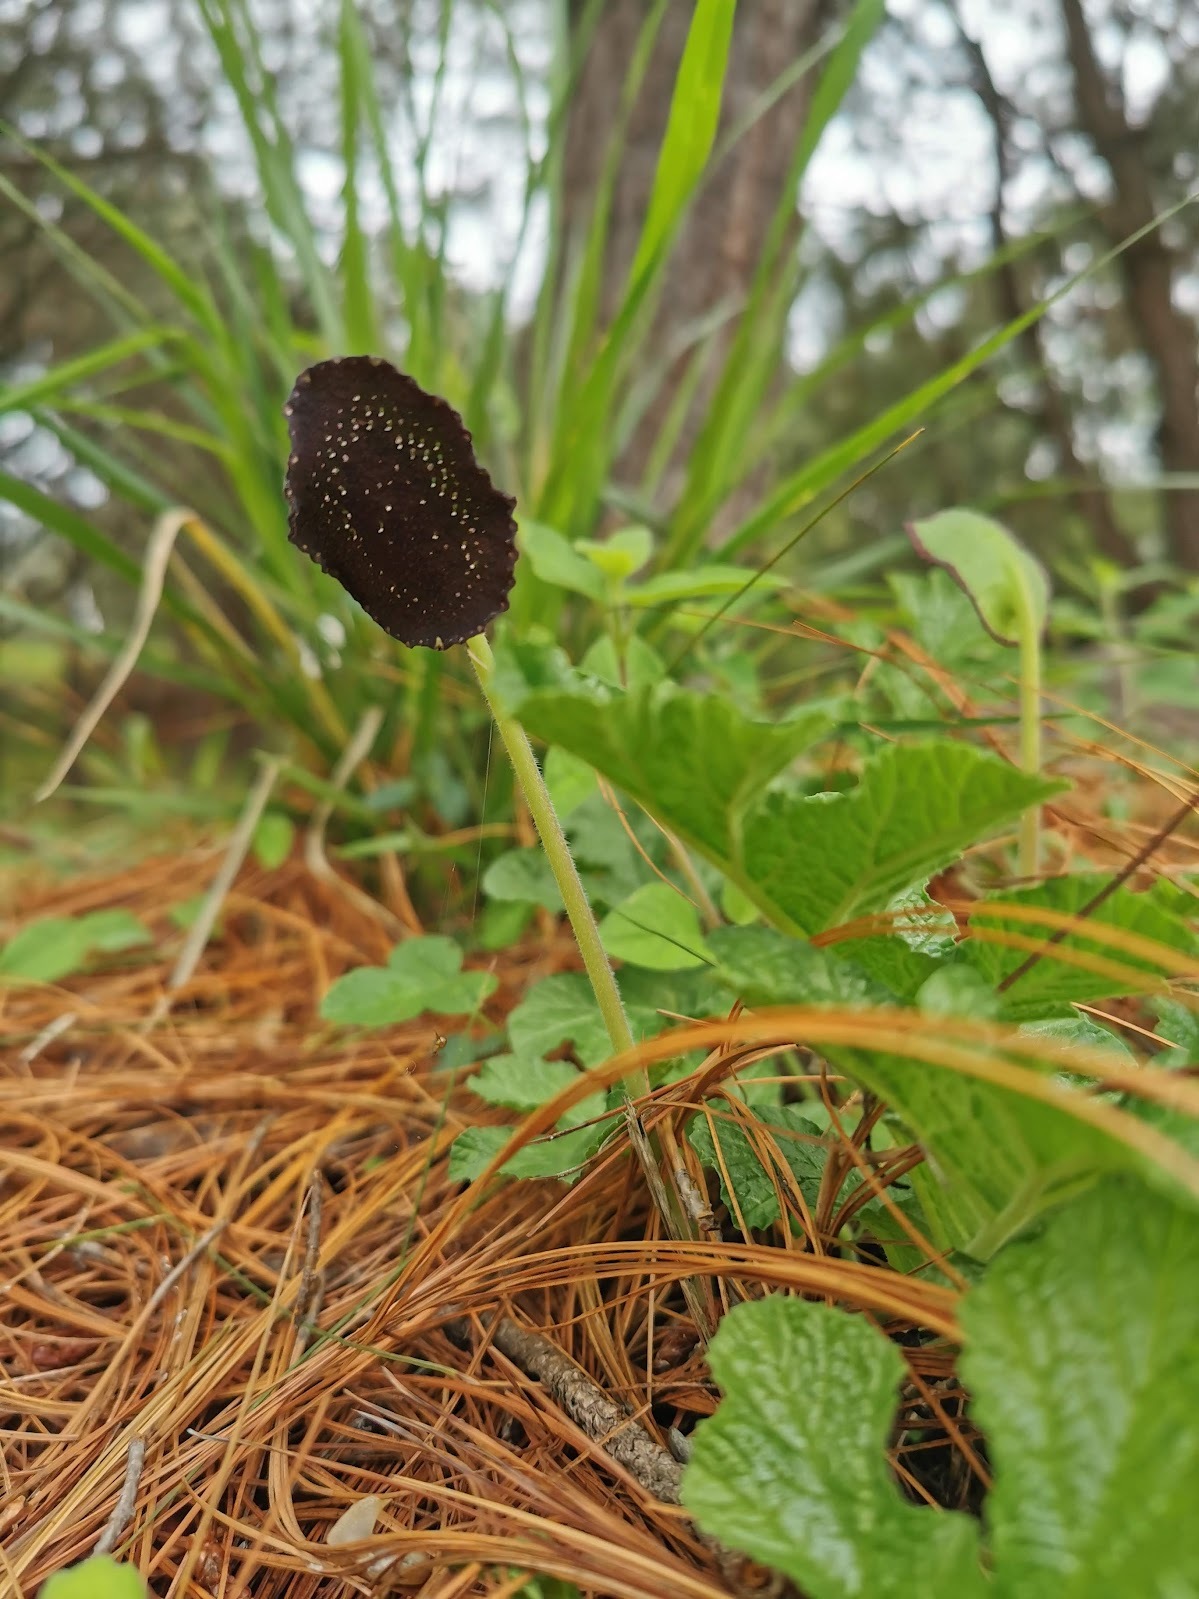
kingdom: Plantae
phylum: Tracheophyta
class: Magnoliopsida
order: Rosales
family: Moraceae
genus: Dorstenia
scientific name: Dorstenia drakena
